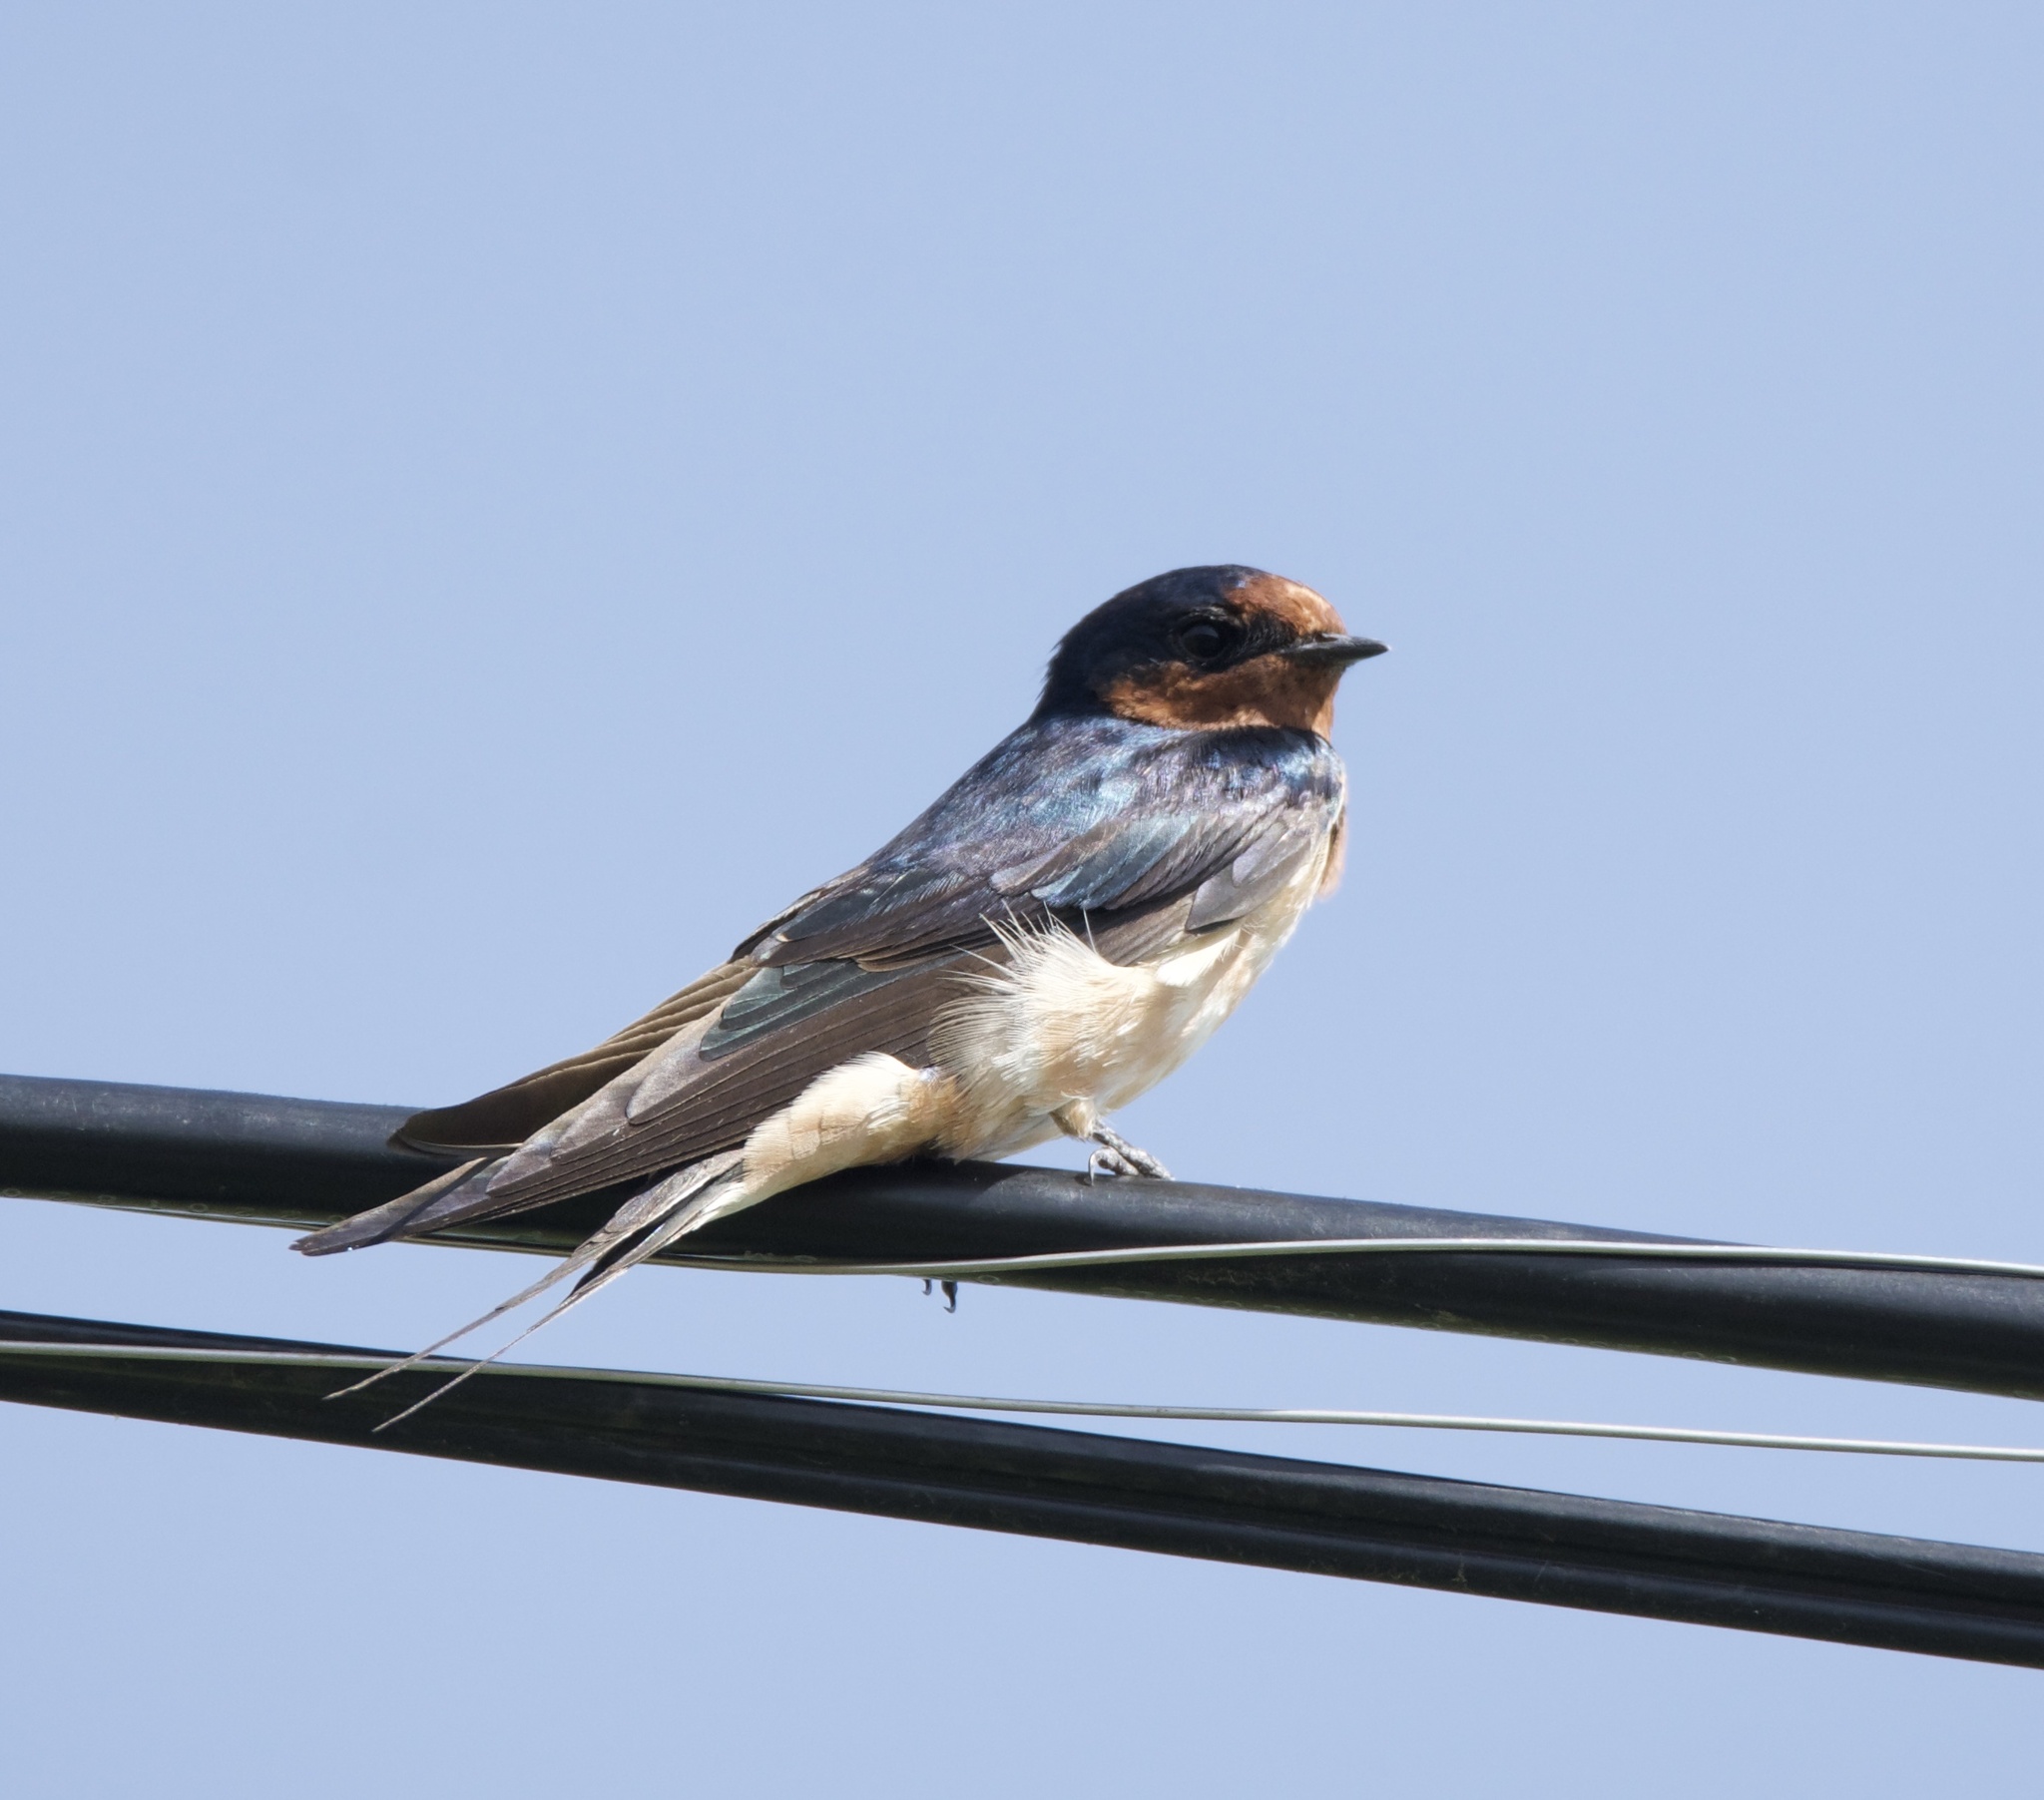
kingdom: Animalia
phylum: Chordata
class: Aves
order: Passeriformes
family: Hirundinidae
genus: Hirundo
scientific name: Hirundo rustica
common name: Barn swallow
